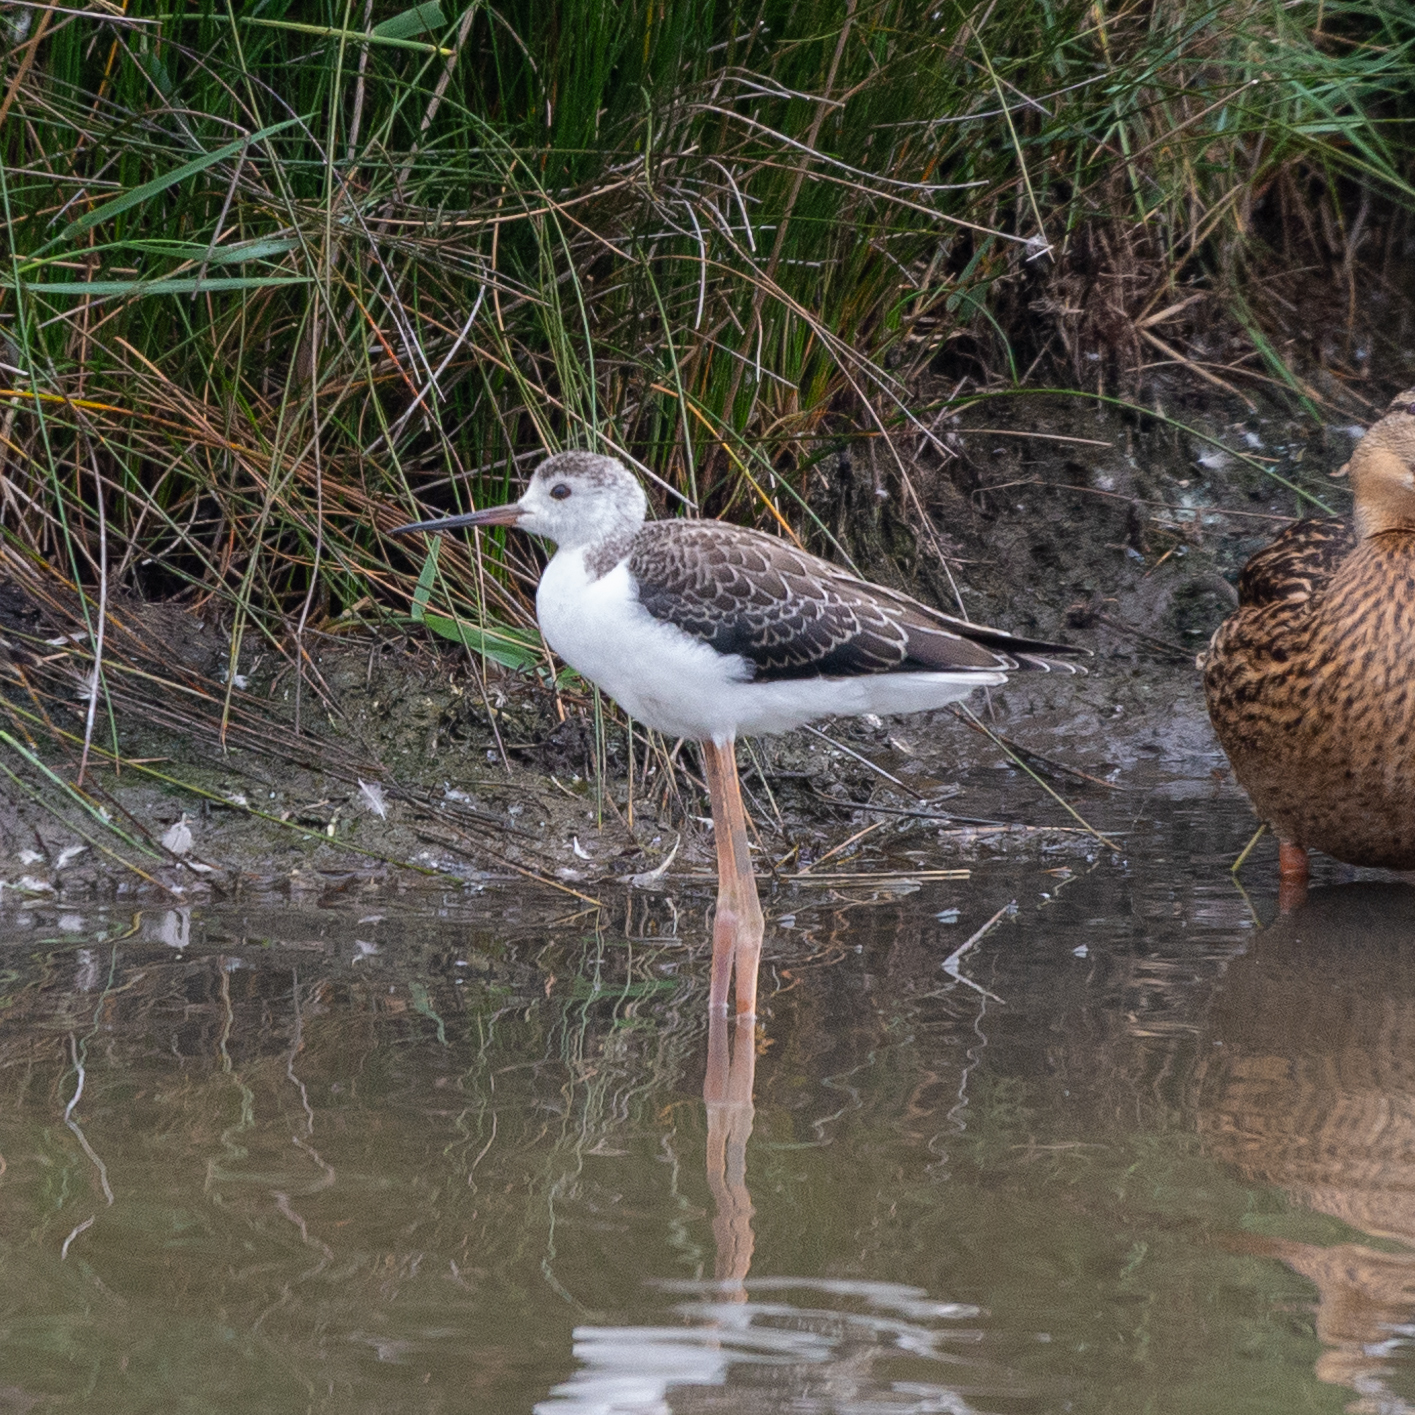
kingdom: Animalia
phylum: Chordata
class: Aves
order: Charadriiformes
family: Recurvirostridae
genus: Himantopus
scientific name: Himantopus himantopus
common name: Black-winged stilt
